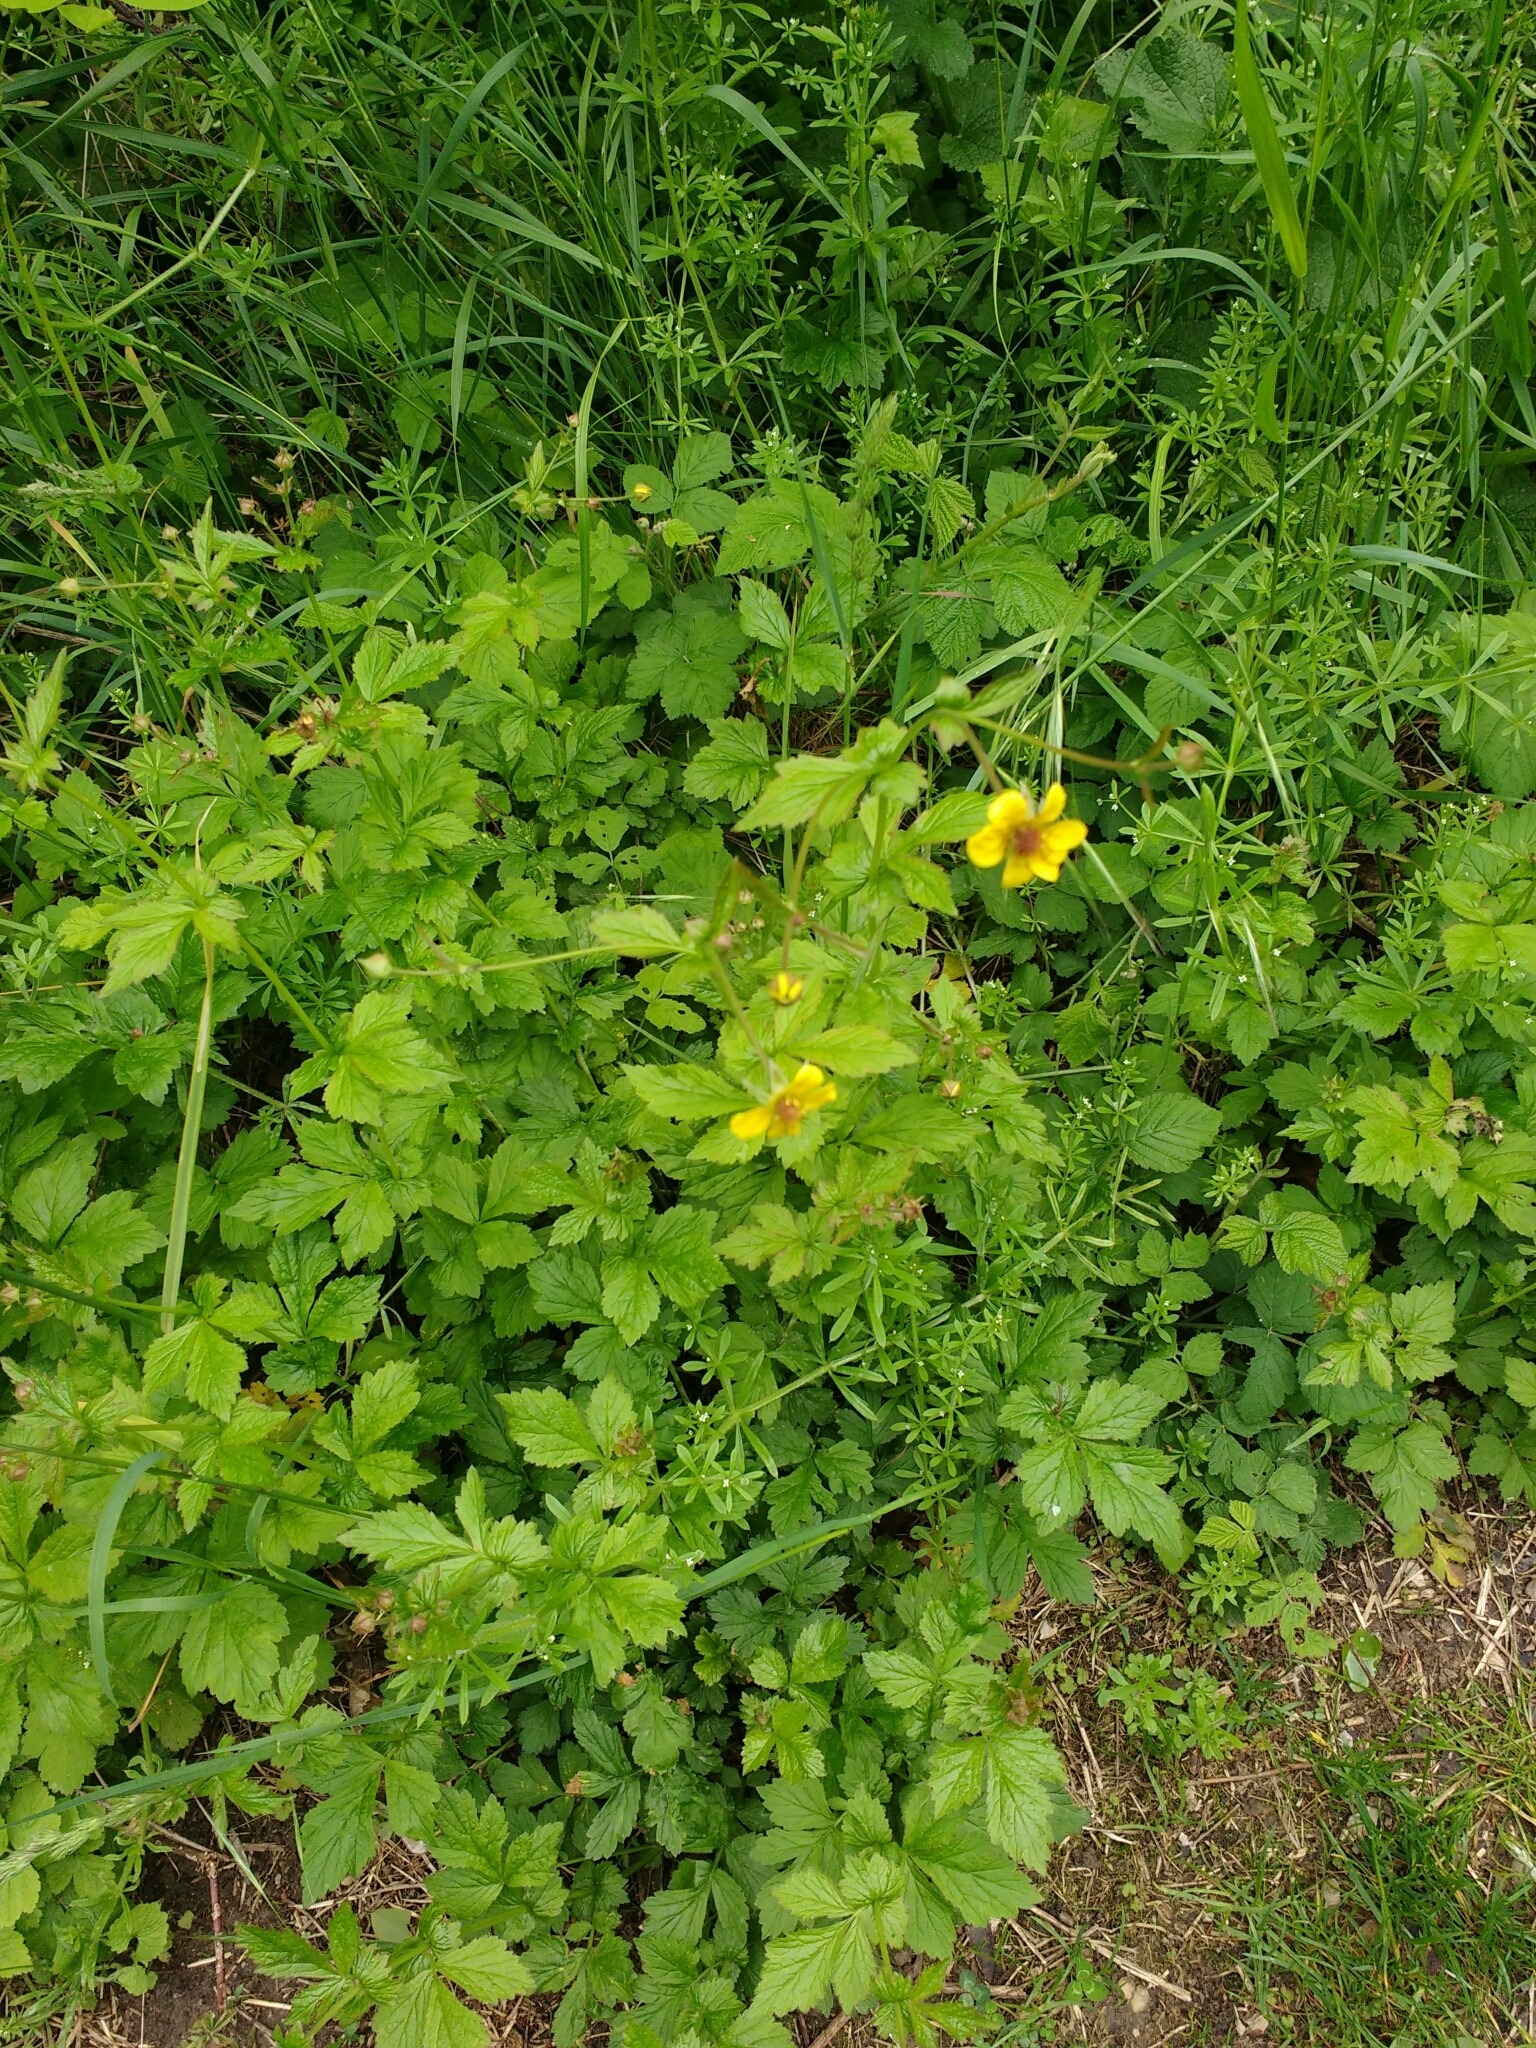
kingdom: Plantae
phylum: Tracheophyta
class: Magnoliopsida
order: Rosales
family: Rosaceae
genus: Geum
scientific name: Geum urbanum
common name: Wood avens
